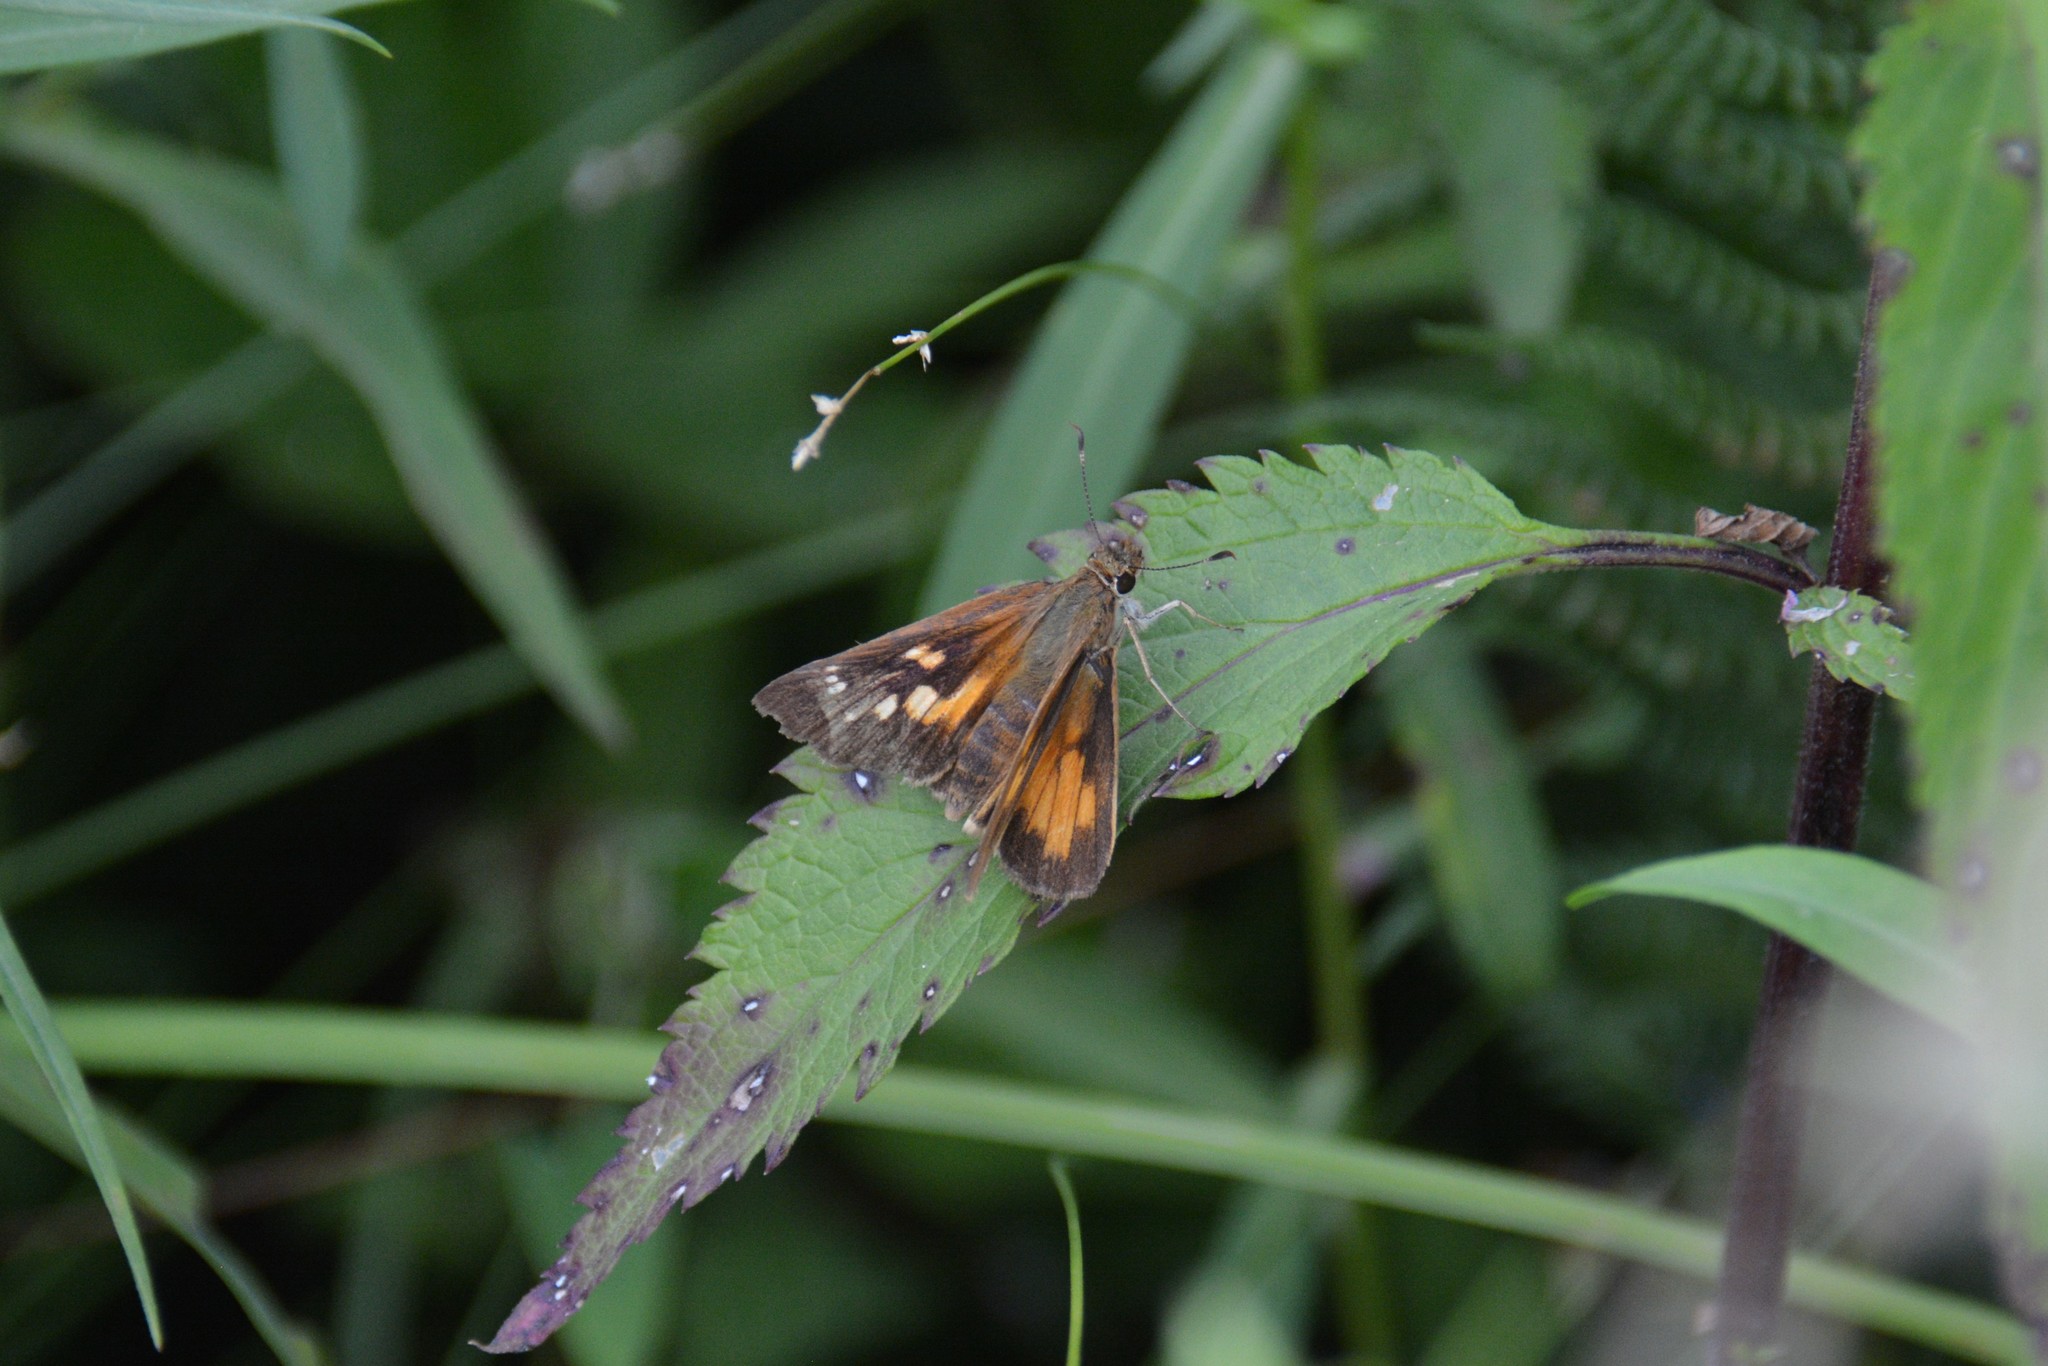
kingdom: Animalia
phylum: Arthropoda
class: Insecta
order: Lepidoptera
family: Hesperiidae
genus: Poanes
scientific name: Poanes viator
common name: Broad-winged skipper
